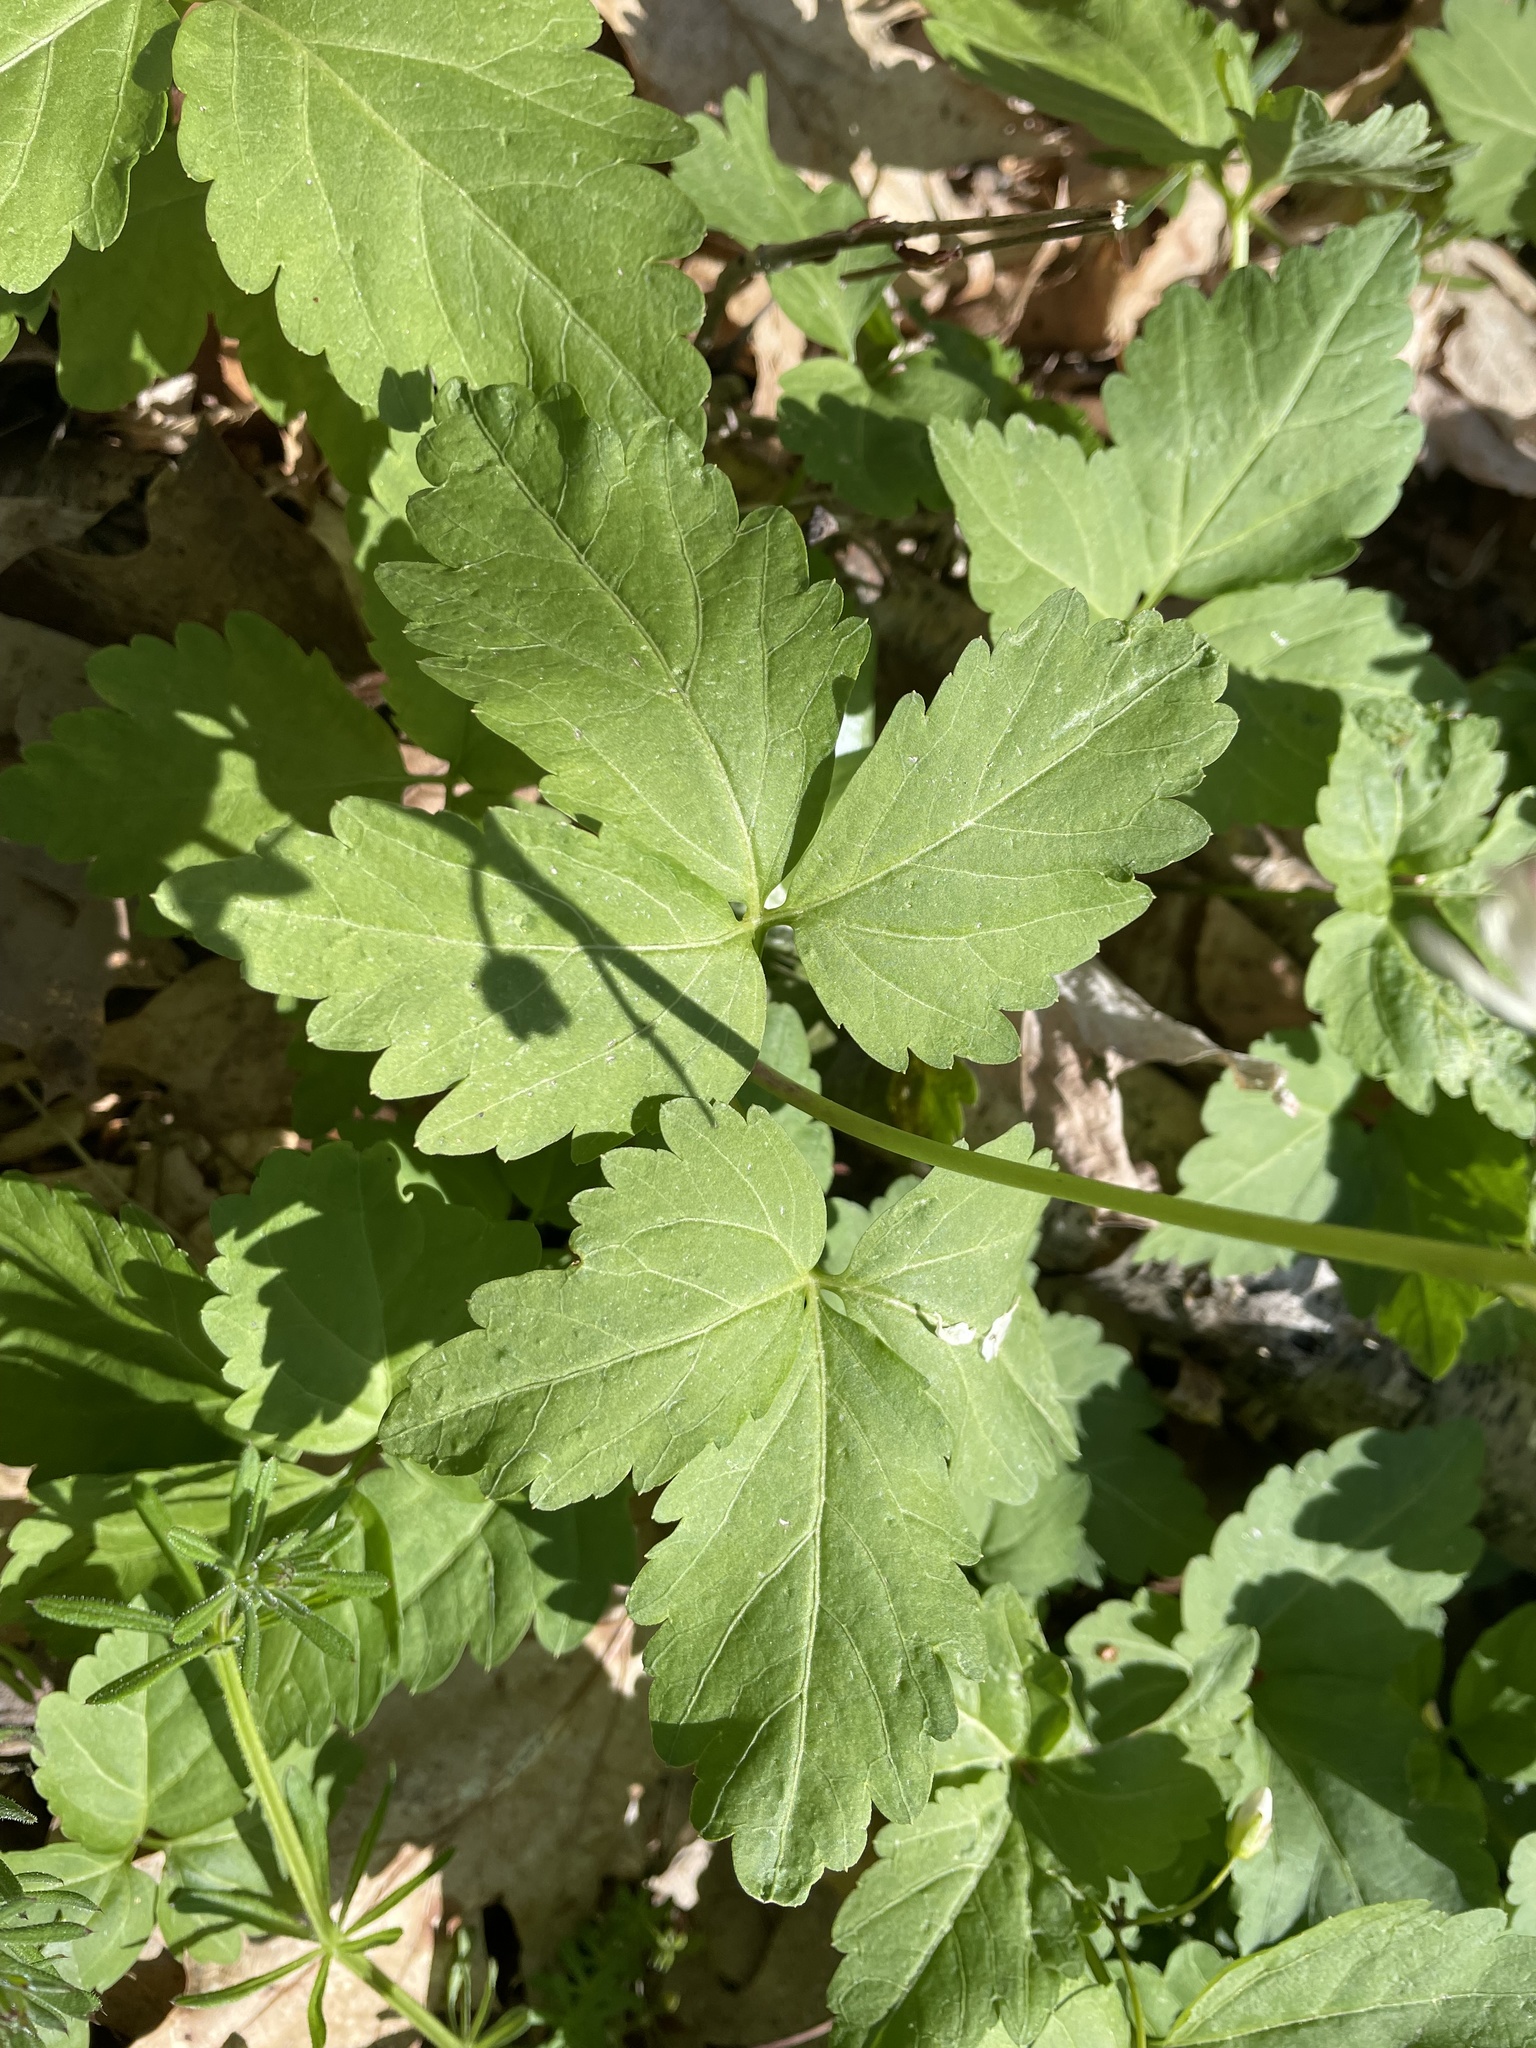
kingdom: Plantae
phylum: Tracheophyta
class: Magnoliopsida
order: Brassicales
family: Brassicaceae
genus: Cardamine
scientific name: Cardamine diphylla
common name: Broad-leaved toothwort
